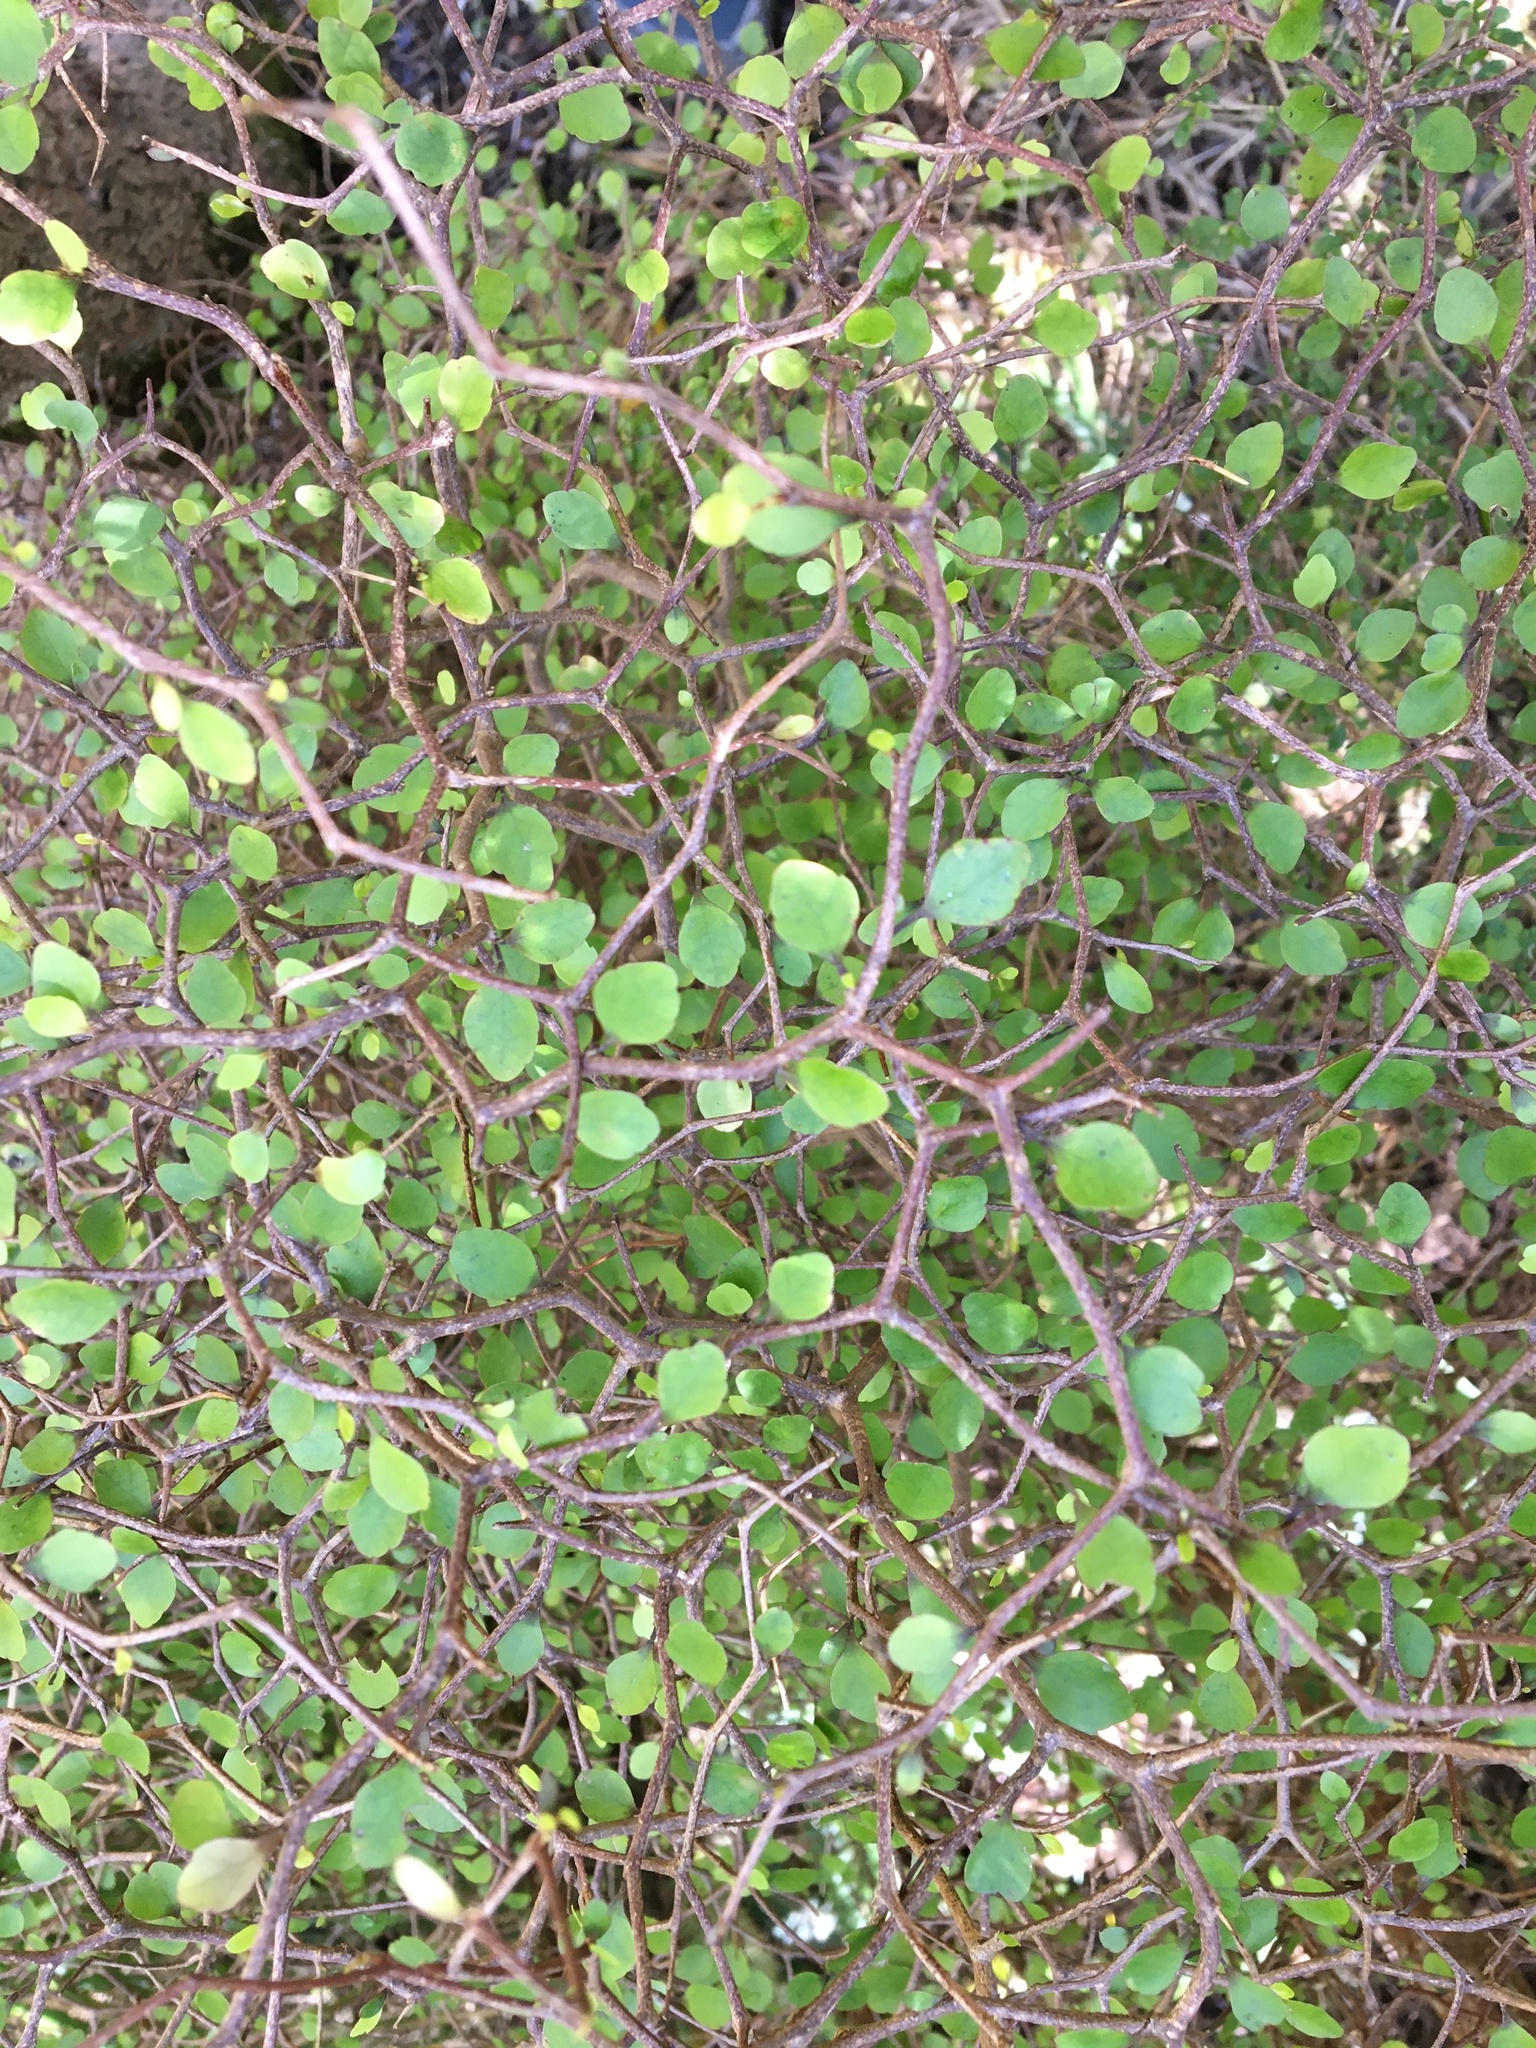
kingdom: Plantae
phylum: Tracheophyta
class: Magnoliopsida
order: Apiales
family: Araliaceae
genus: Raukaua
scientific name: Raukaua anomalus
